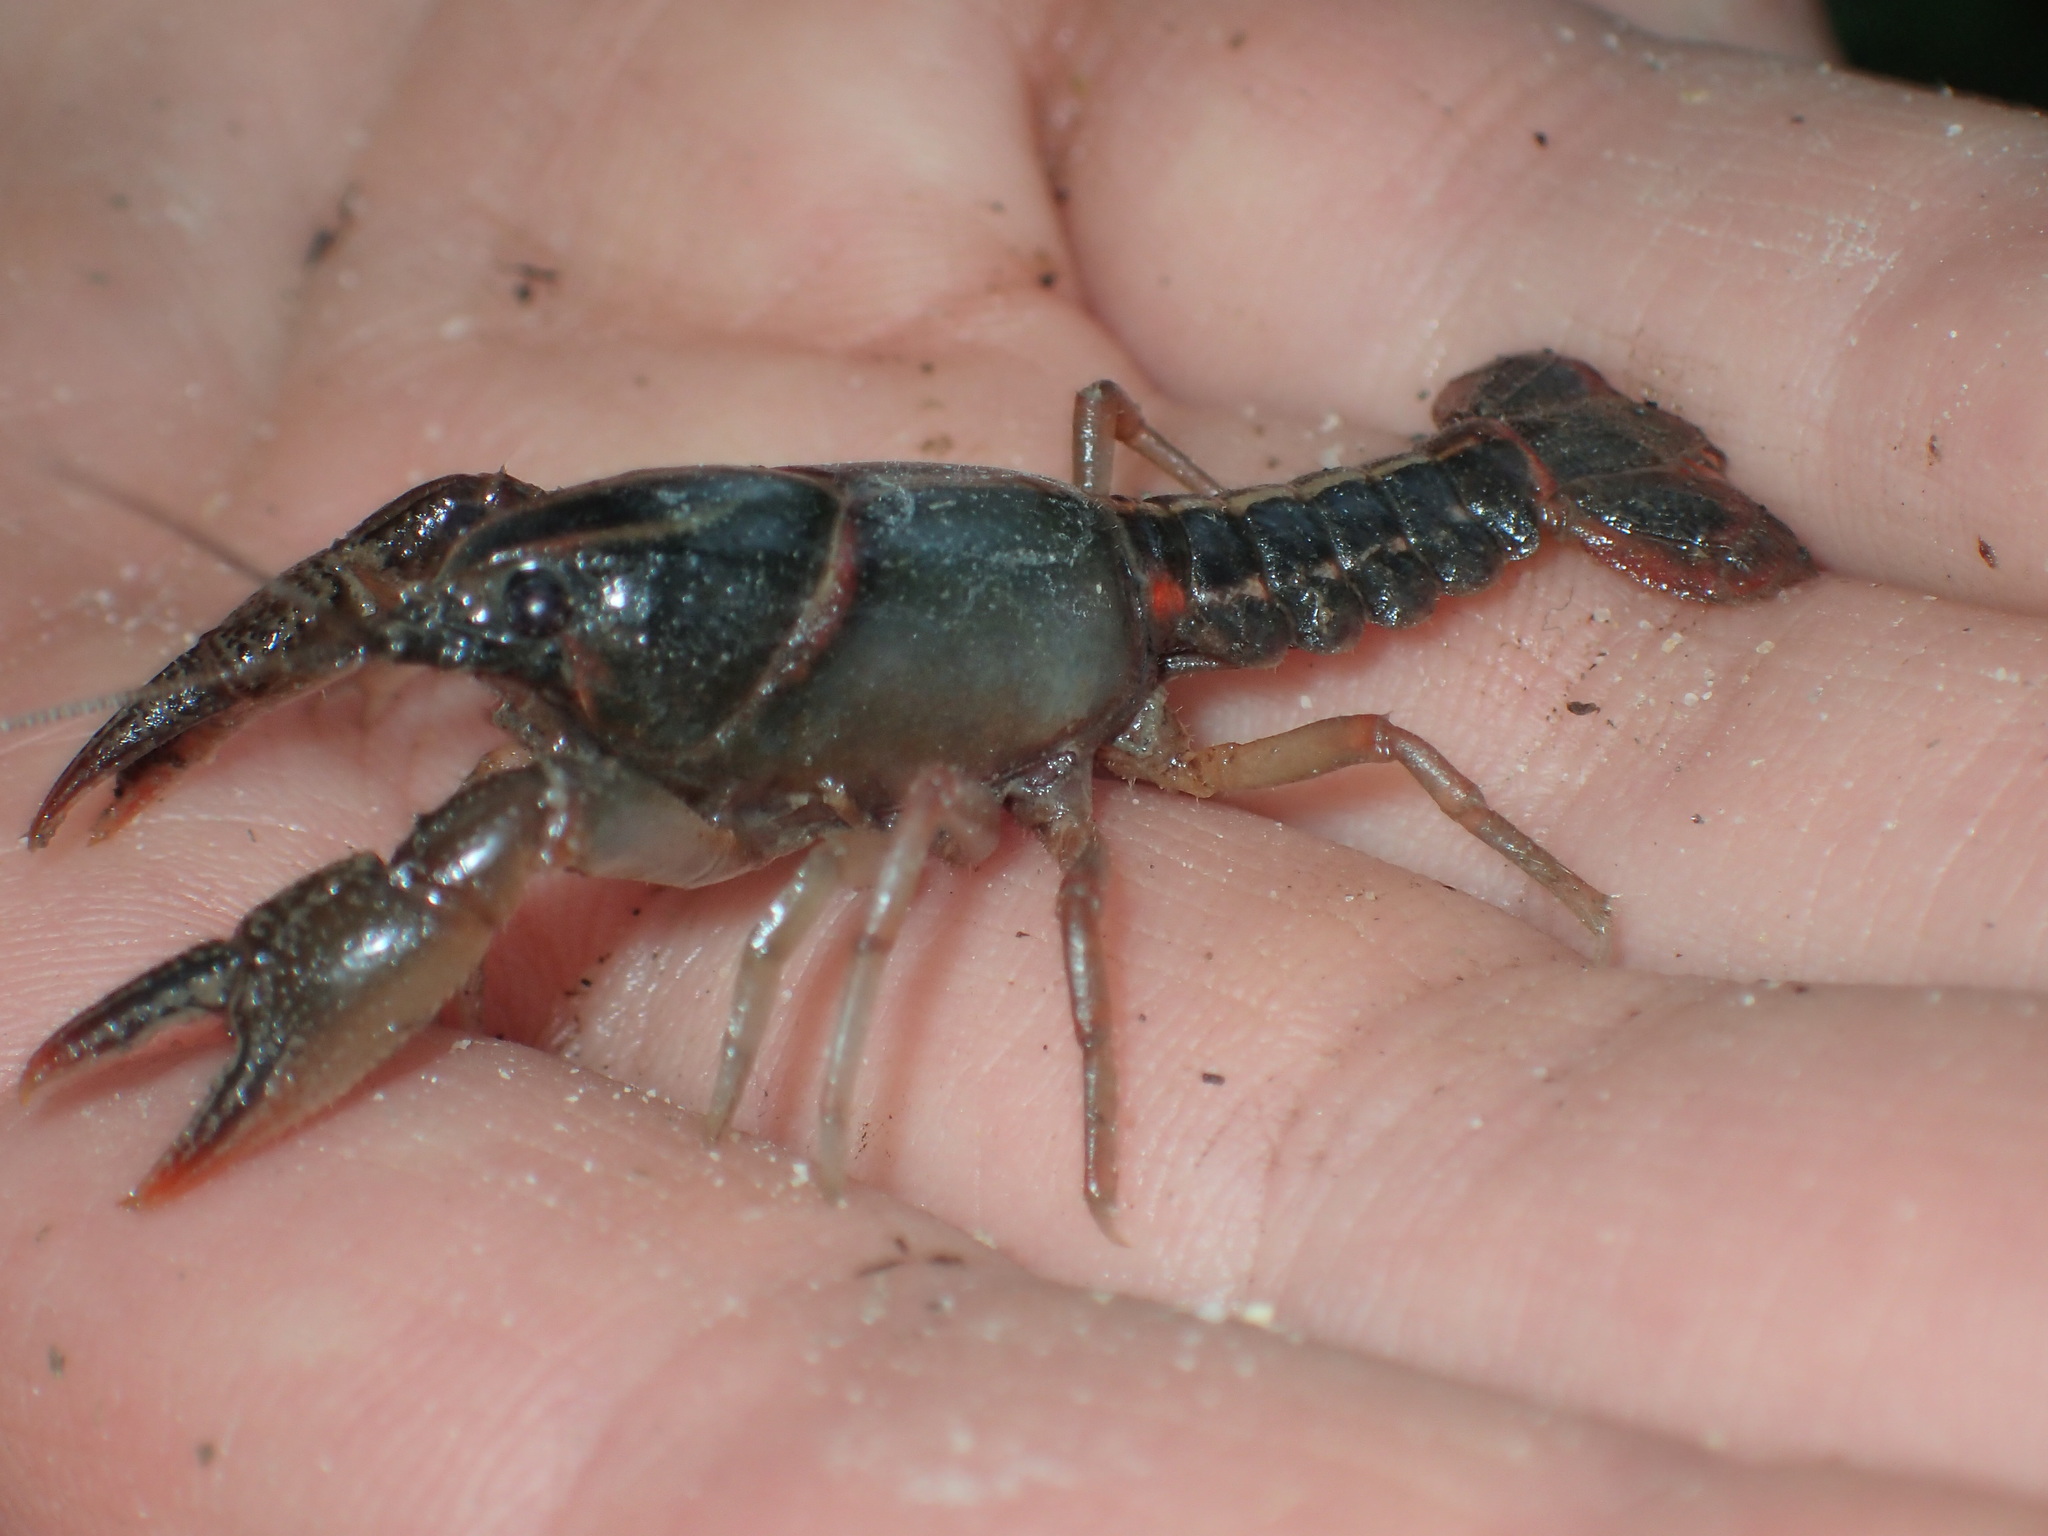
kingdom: Animalia
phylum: Arthropoda
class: Malacostraca
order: Decapoda
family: Cambaridae
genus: Lacunicambarus
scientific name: Lacunicambarus ludovicianus
